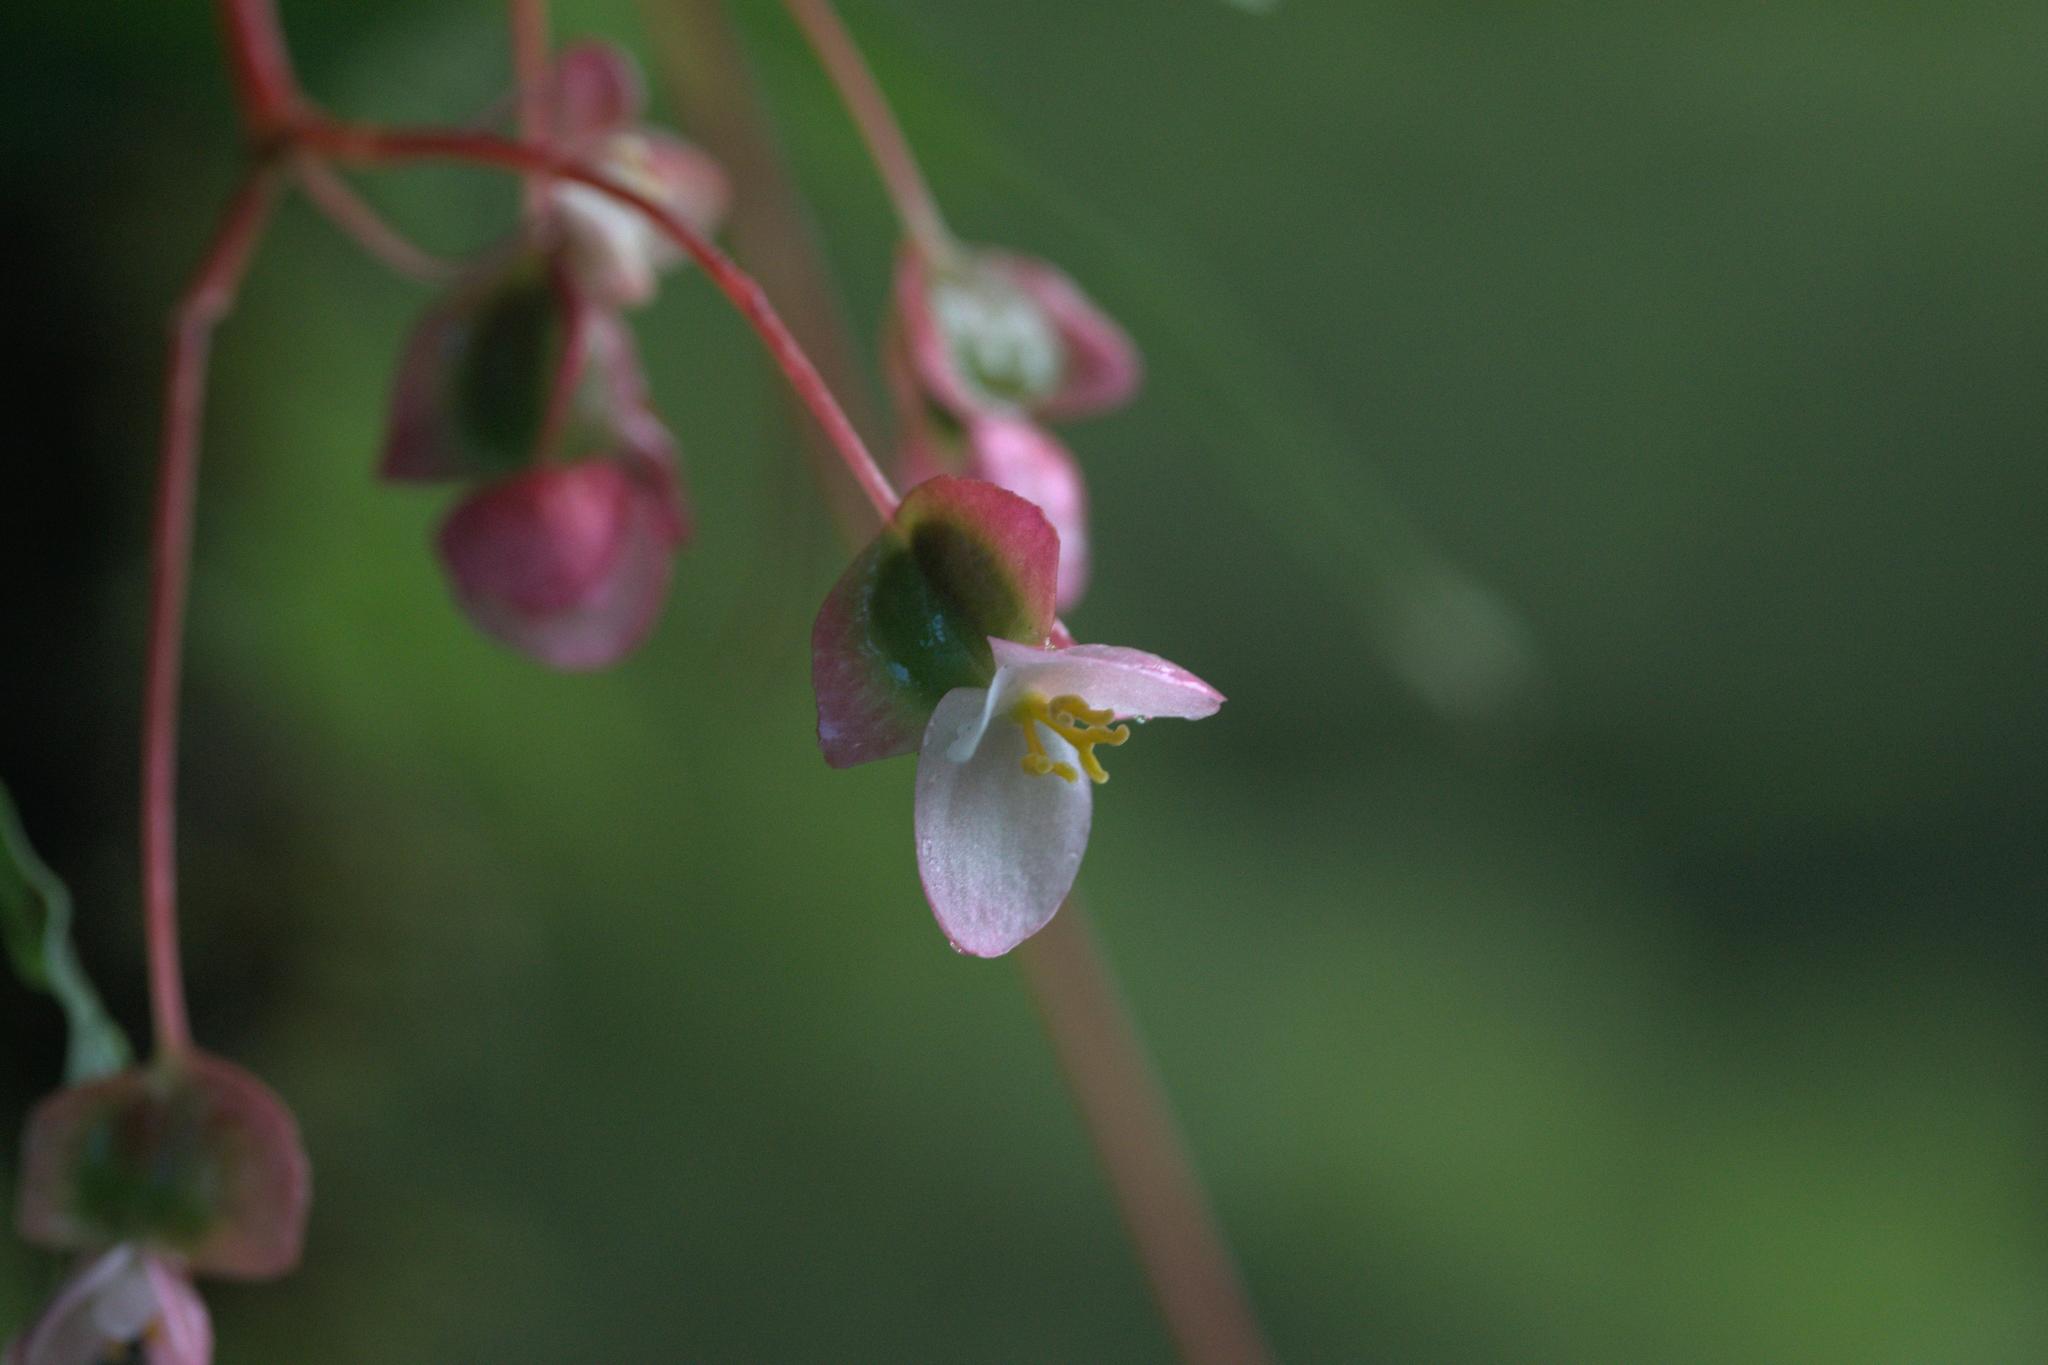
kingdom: Plantae
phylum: Tracheophyta
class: Magnoliopsida
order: Cucurbitales
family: Begoniaceae
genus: Begonia
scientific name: Begonia dioica
